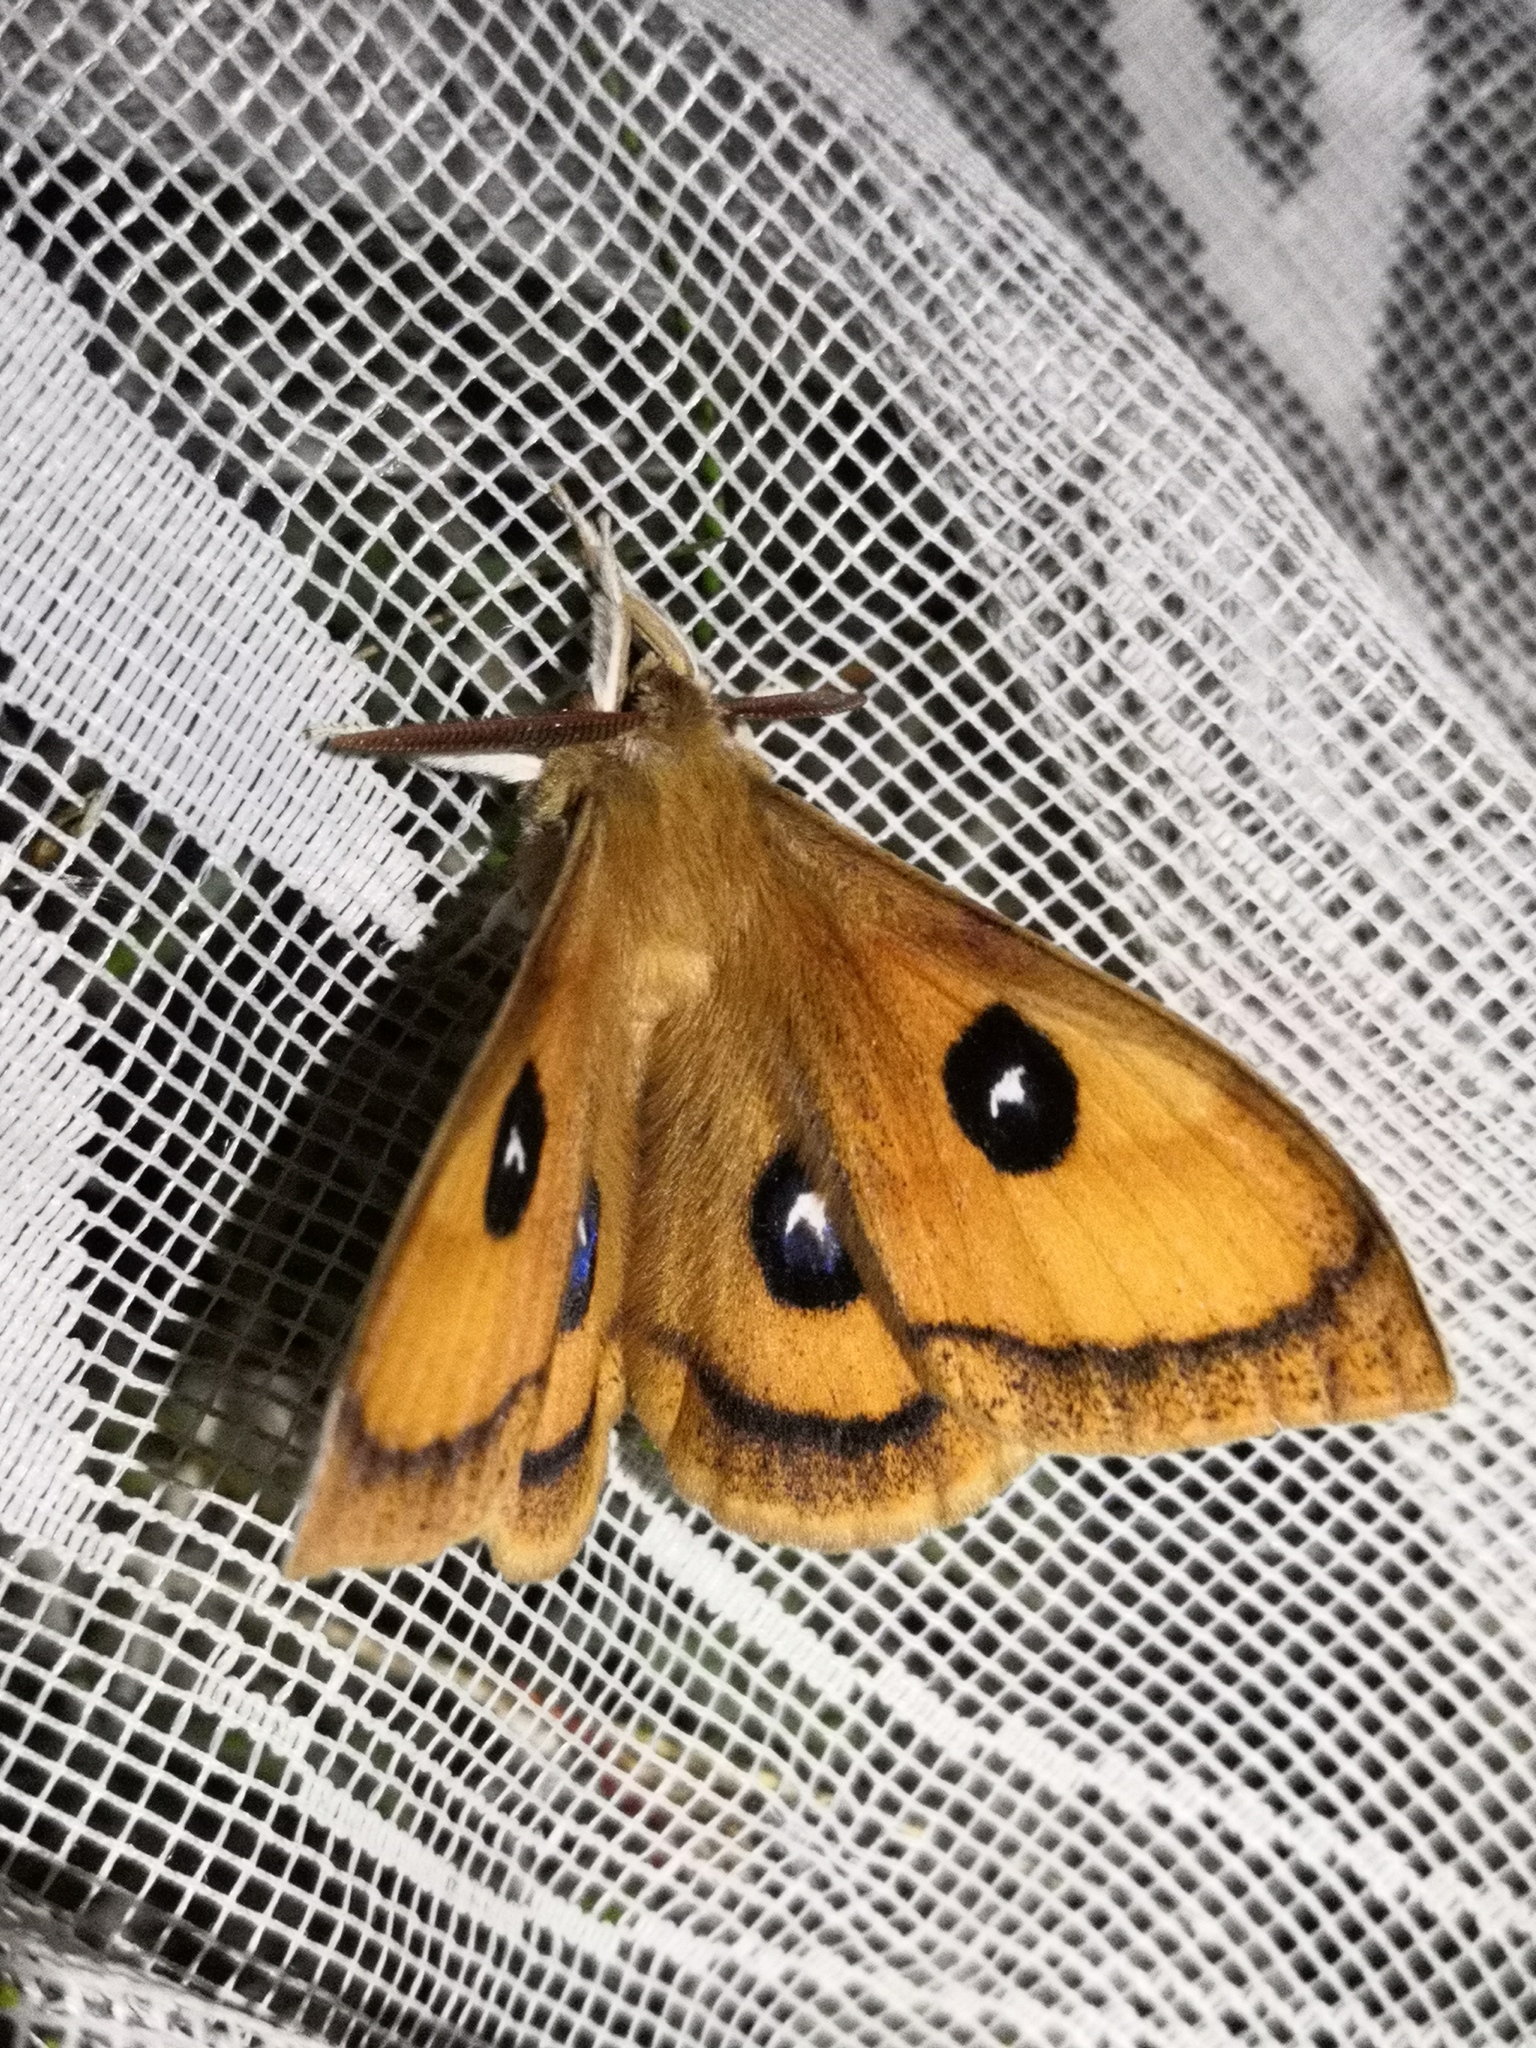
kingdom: Animalia
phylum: Arthropoda
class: Insecta
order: Lepidoptera
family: Saturniidae
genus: Aglia
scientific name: Aglia tau
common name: Tau emperor
